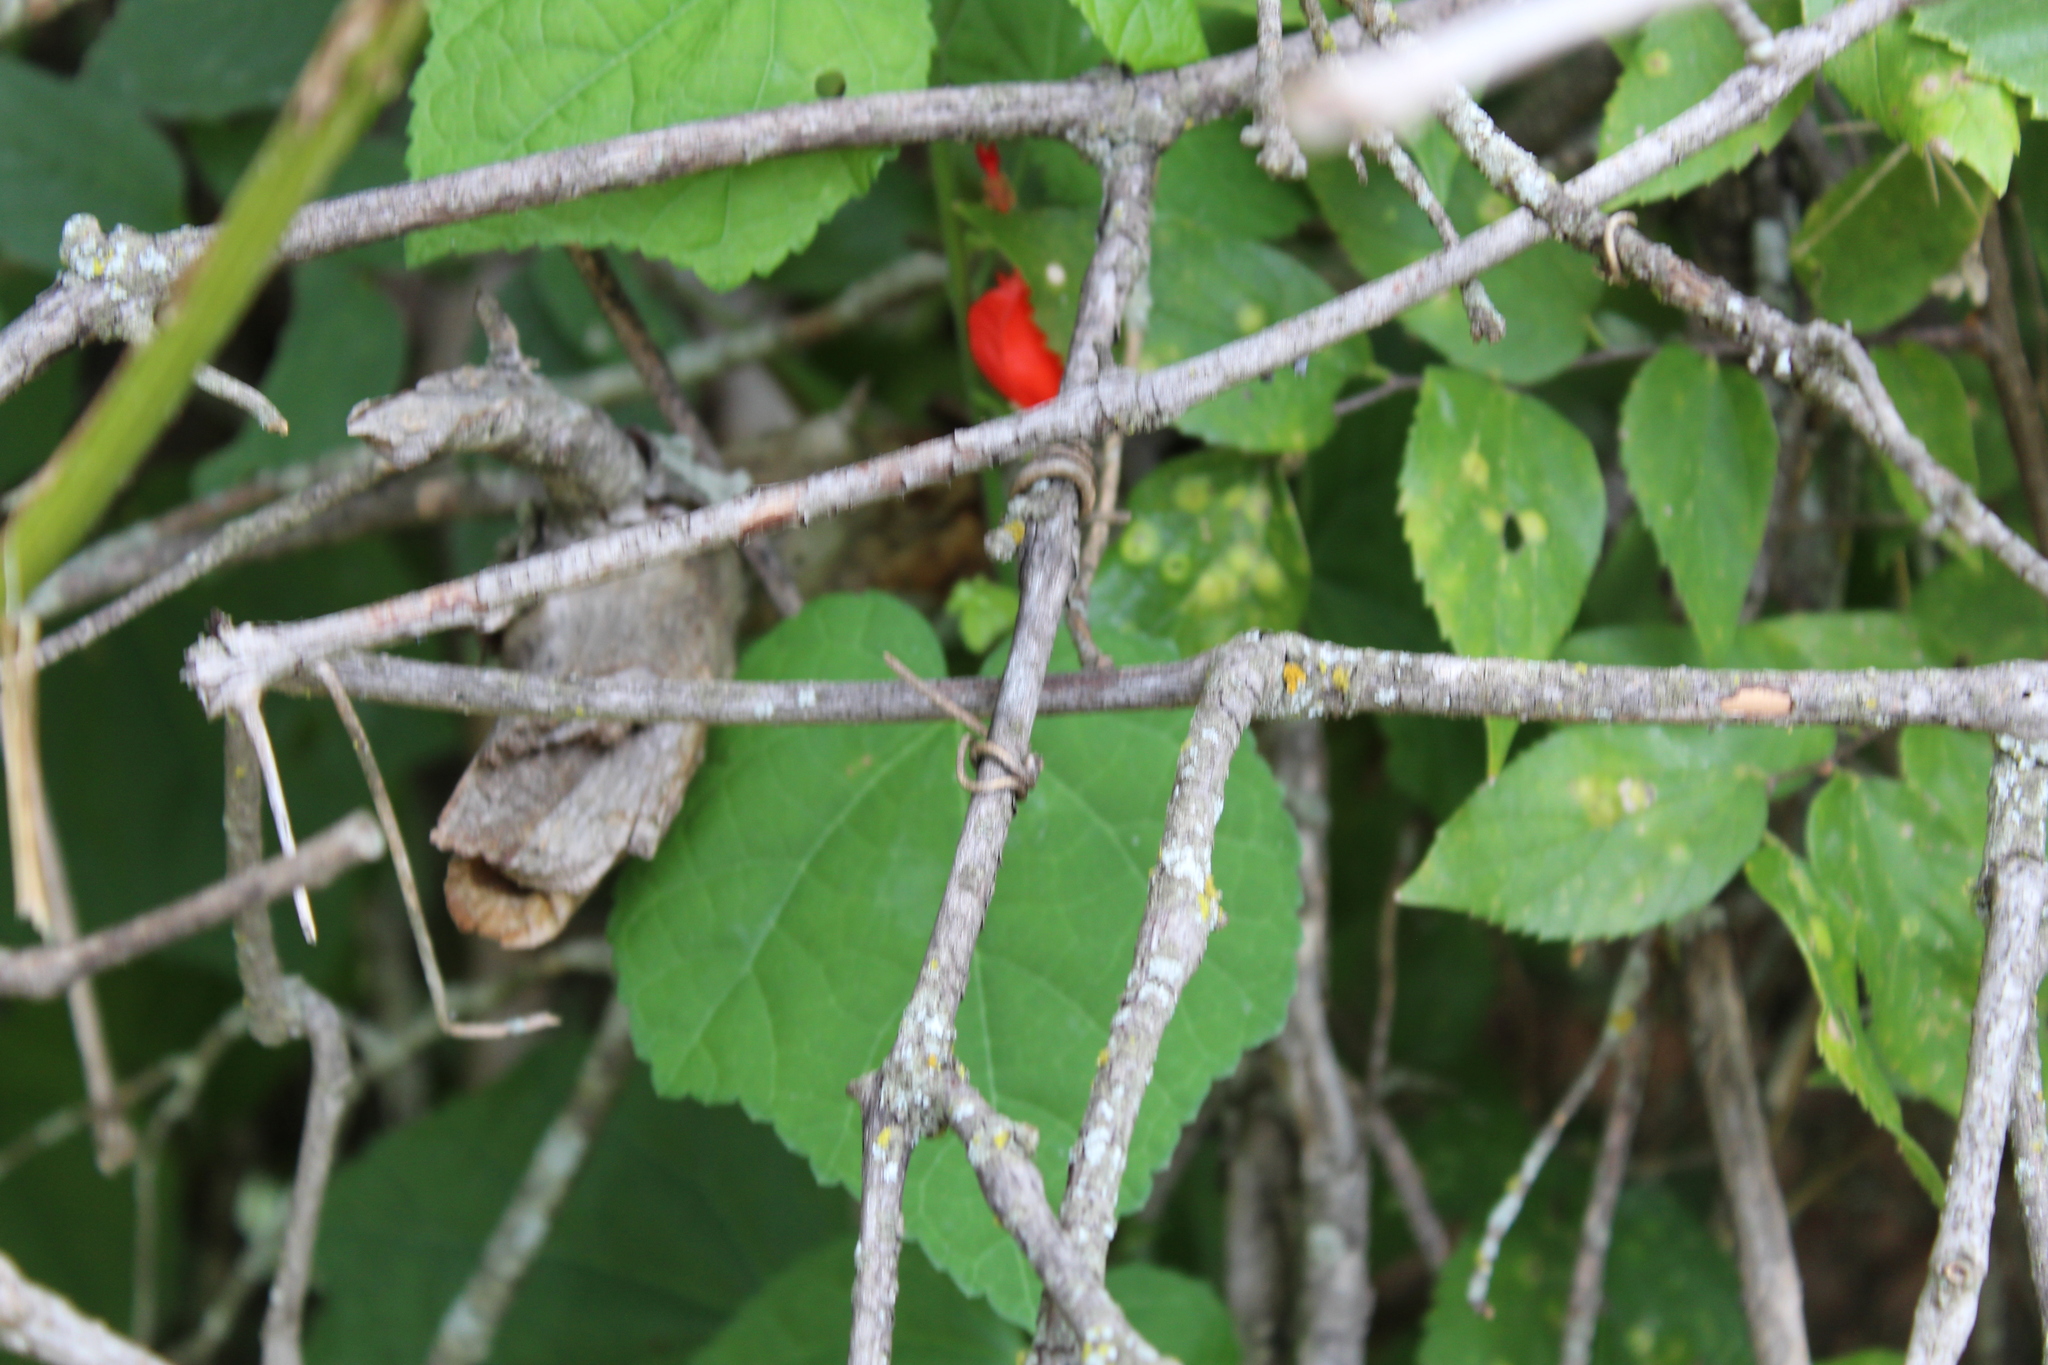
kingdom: Plantae
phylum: Tracheophyta
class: Magnoliopsida
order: Malvales
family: Malvaceae
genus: Malvaviscus
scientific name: Malvaviscus arboreus
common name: Wax mallow
